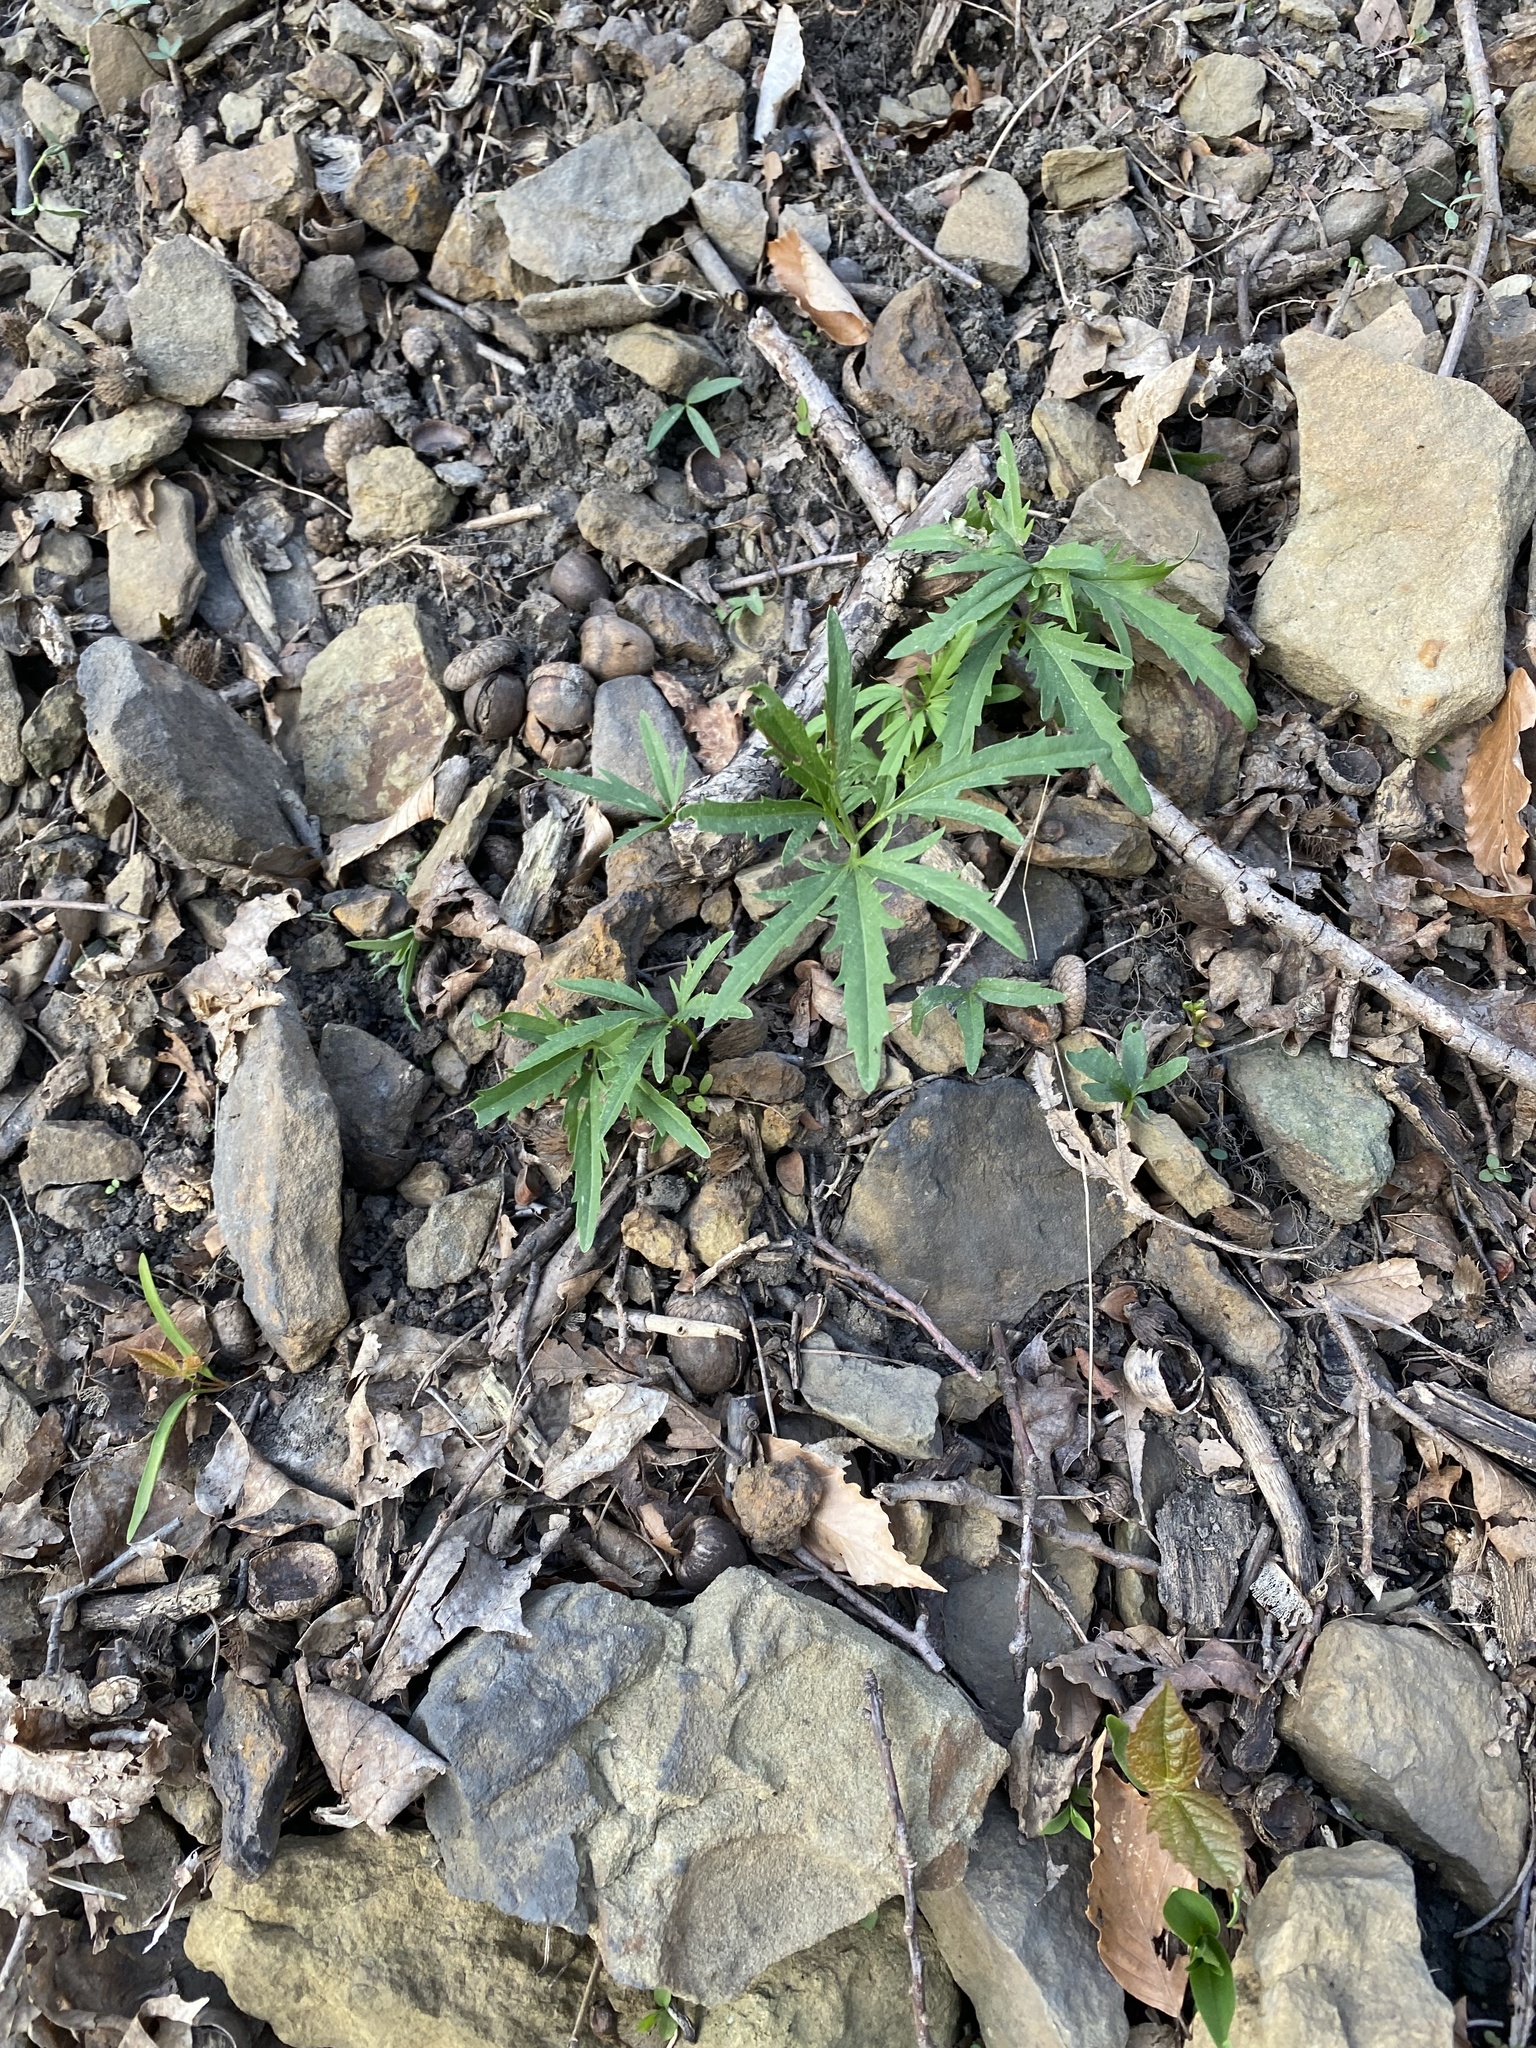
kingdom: Plantae
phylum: Tracheophyta
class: Magnoliopsida
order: Brassicales
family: Brassicaceae
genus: Cardamine
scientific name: Cardamine concatenata
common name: Cut-leaf toothcup
